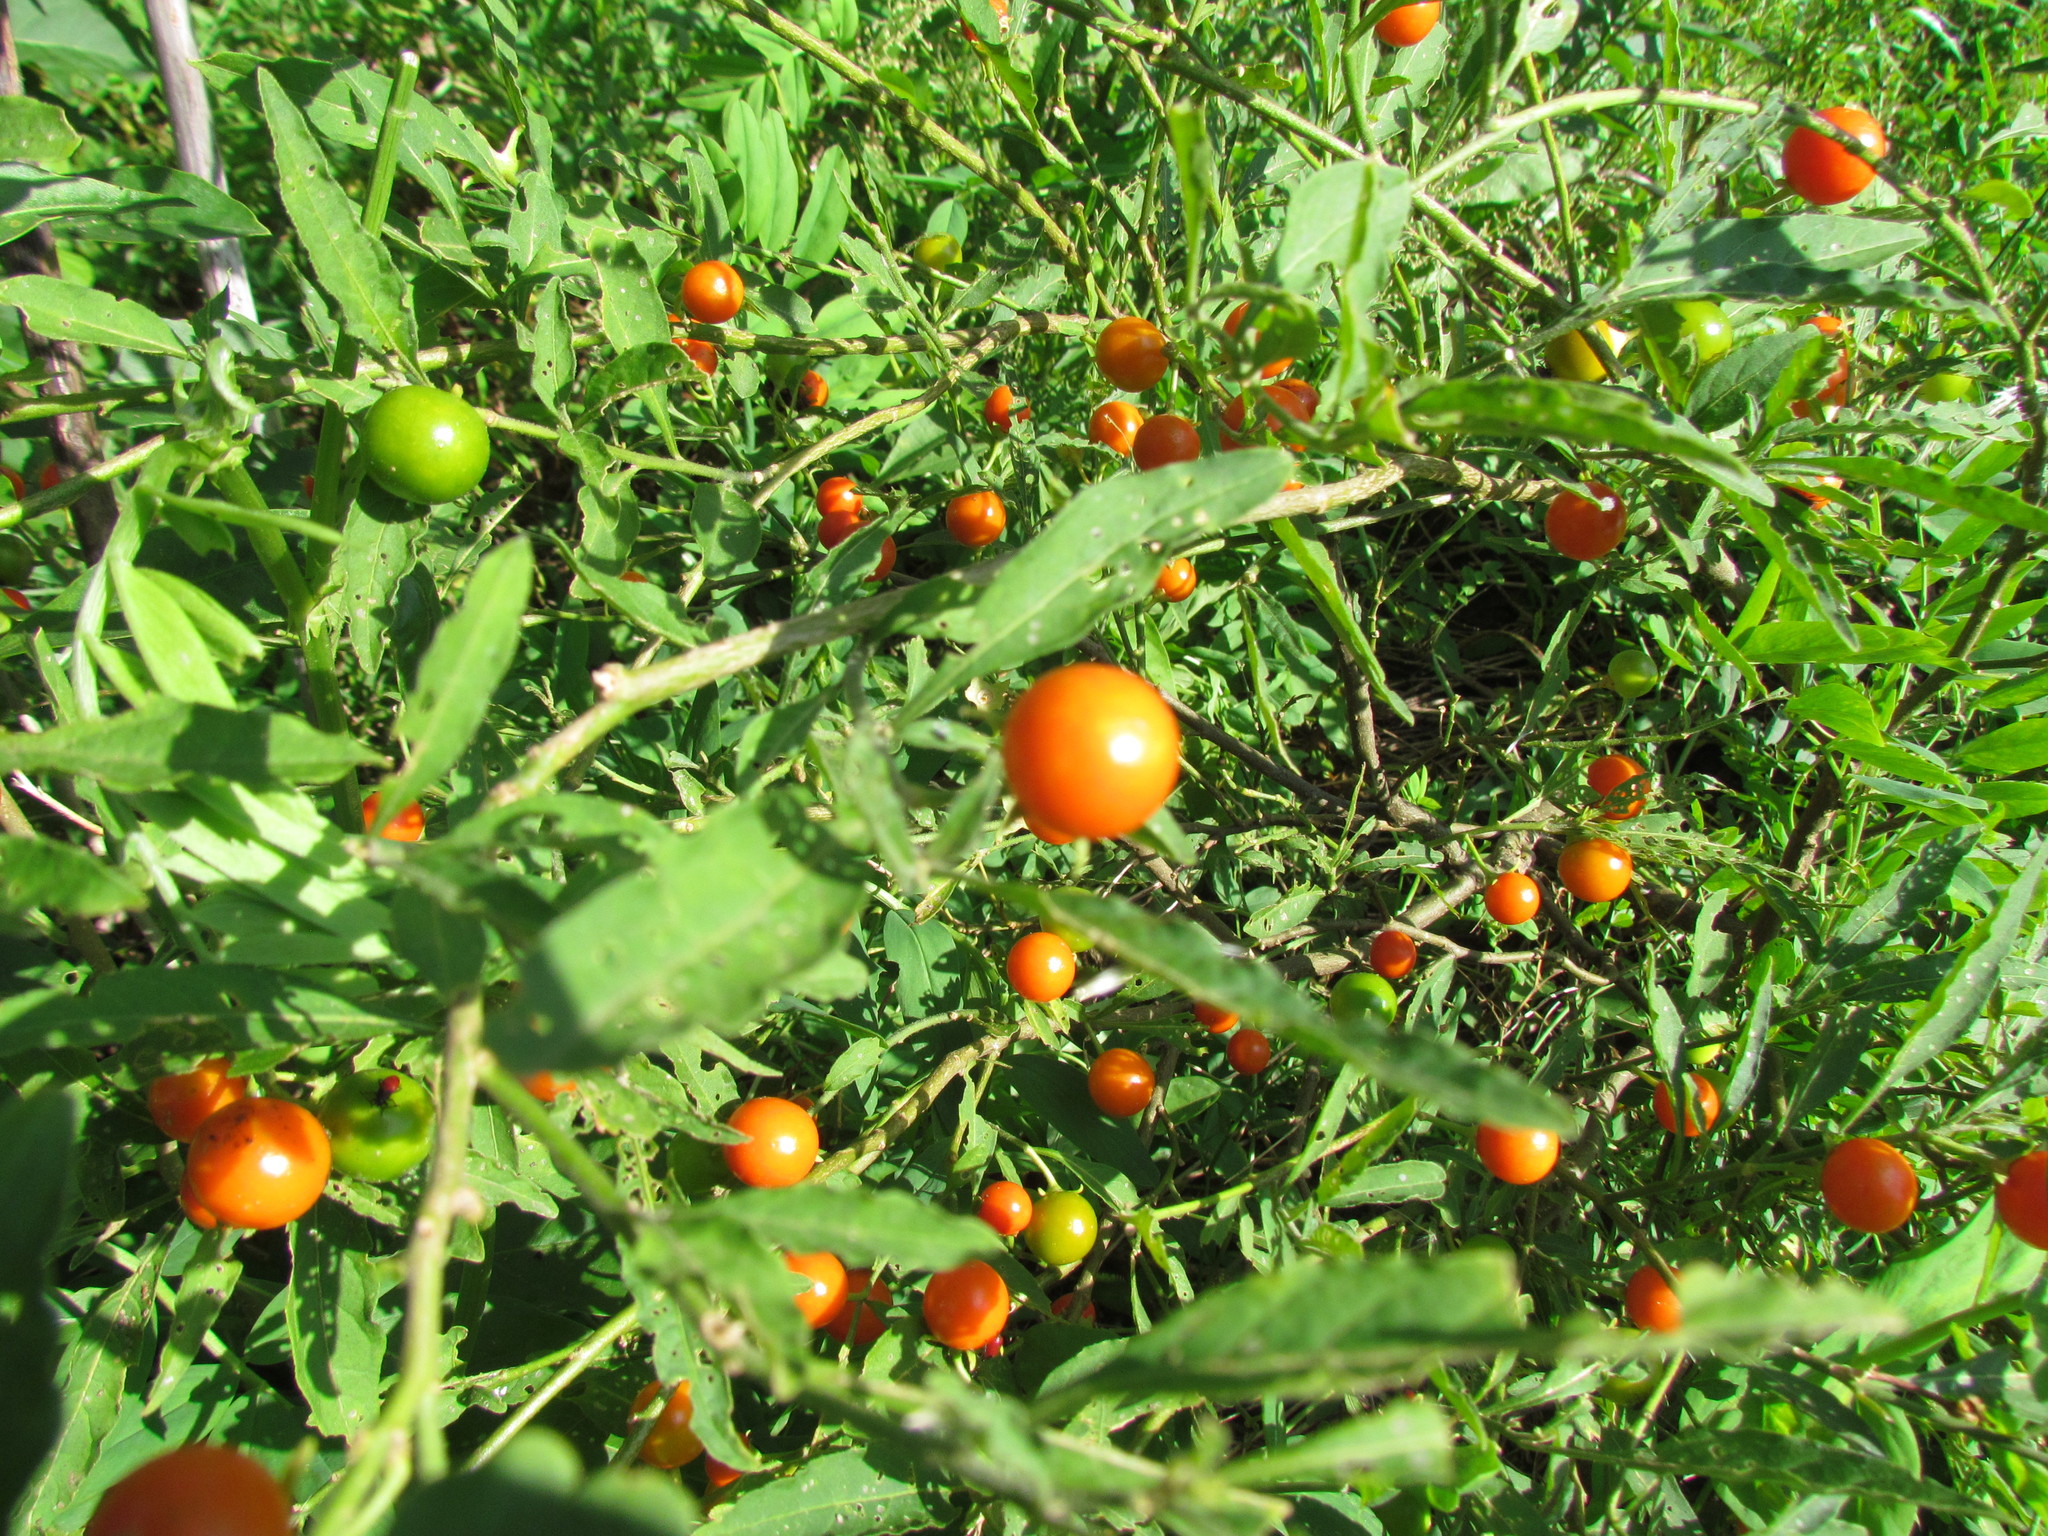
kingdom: Plantae
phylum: Tracheophyta
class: Magnoliopsida
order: Solanales
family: Solanaceae
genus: Solanum
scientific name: Solanum pseudocapsicum
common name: Jerusalem cherry
